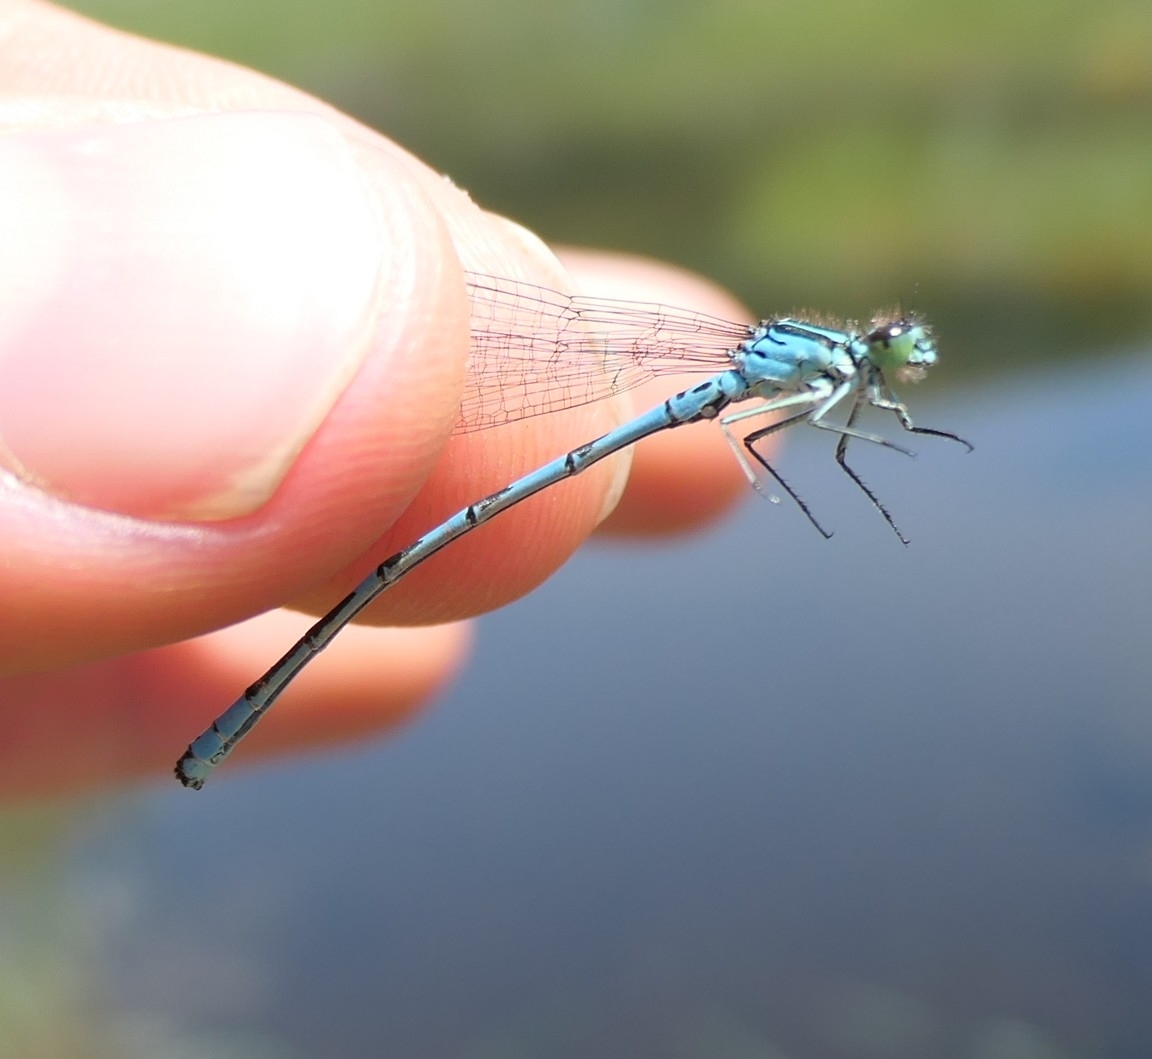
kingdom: Animalia
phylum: Arthropoda
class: Insecta
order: Odonata
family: Coenagrionidae
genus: Coenagrion
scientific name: Coenagrion hastulatum
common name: Spearhead bluet
